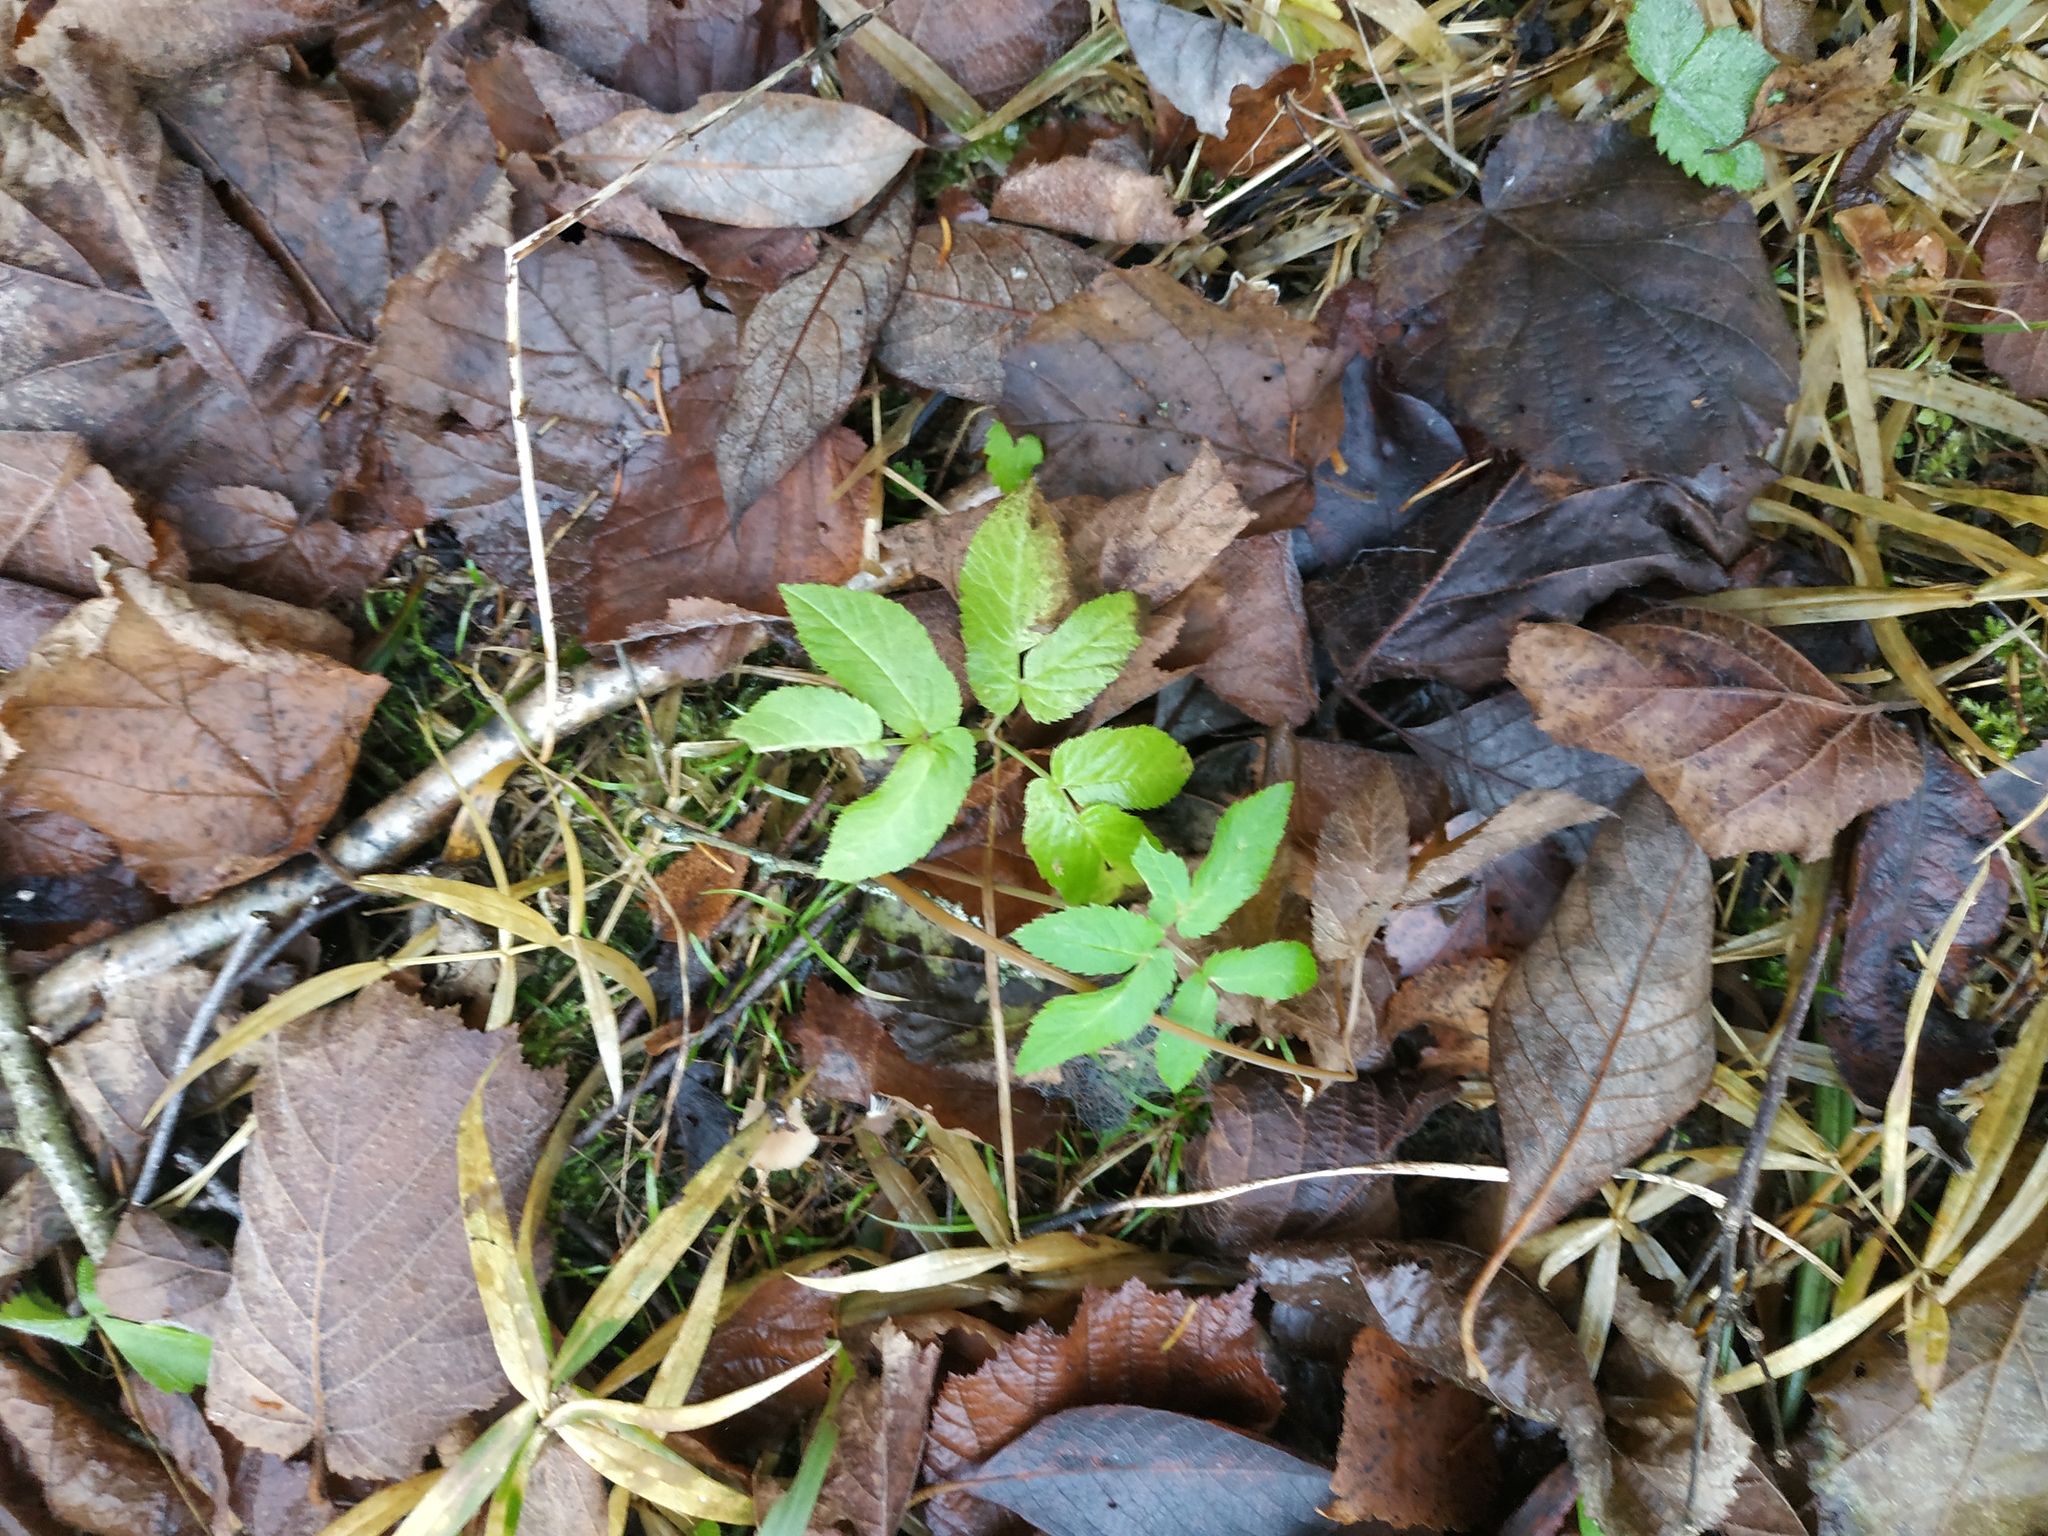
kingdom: Plantae
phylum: Tracheophyta
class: Magnoliopsida
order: Apiales
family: Apiaceae
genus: Aegopodium
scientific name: Aegopodium podagraria
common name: Ground-elder
